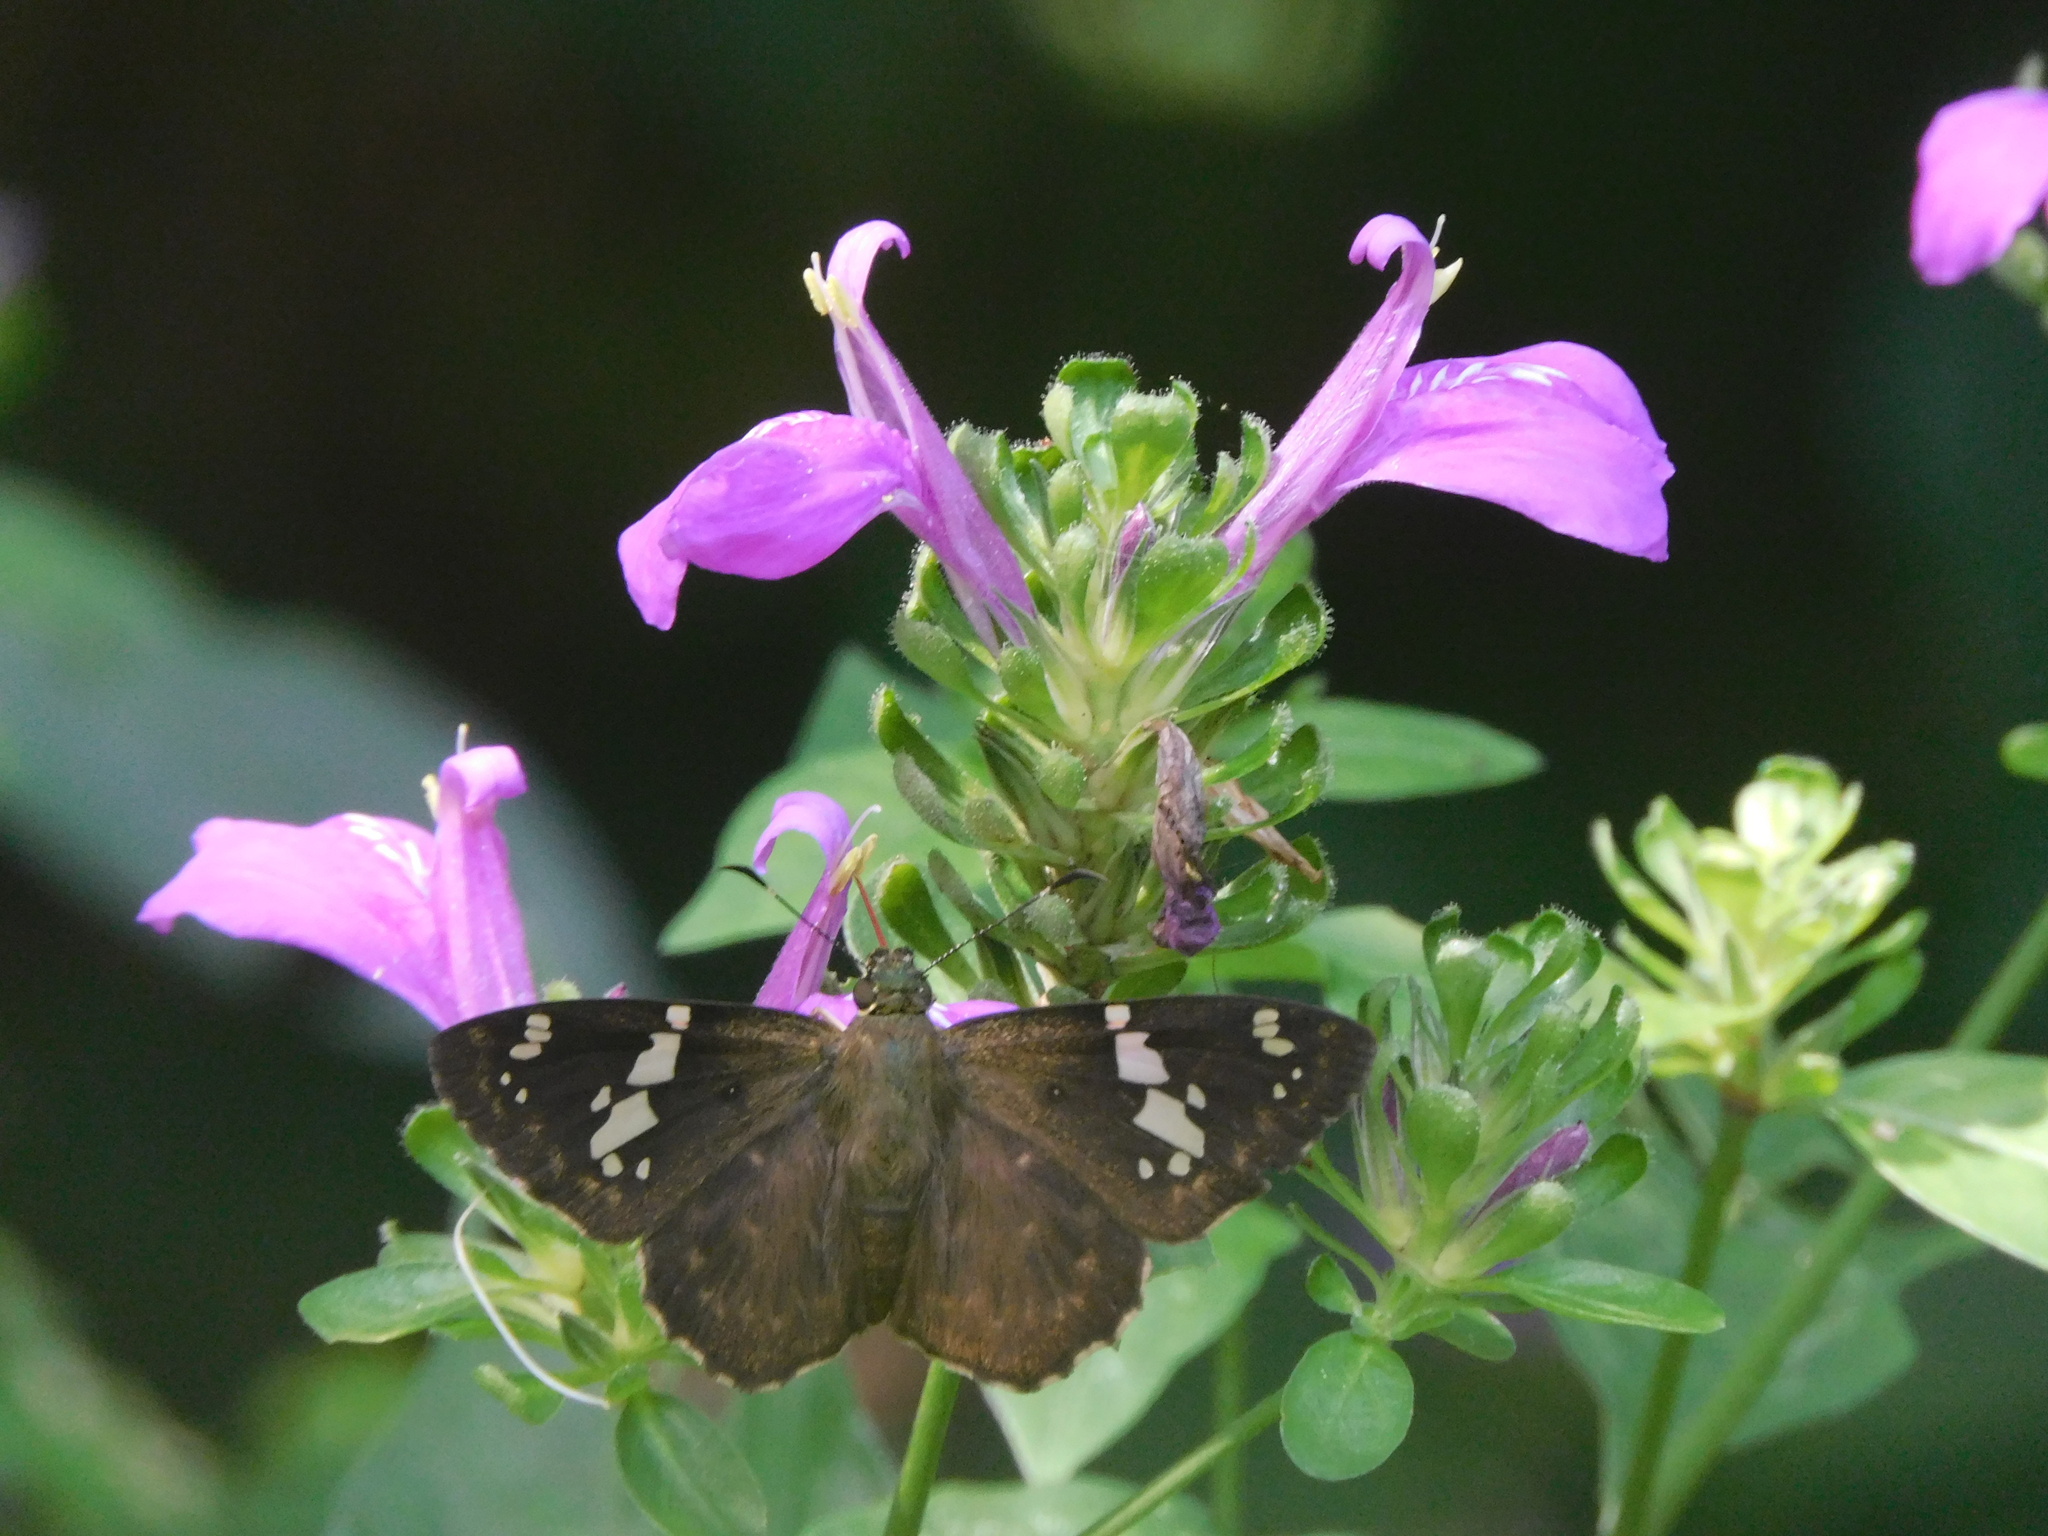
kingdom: Plantae
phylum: Tracheophyta
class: Magnoliopsida
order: Lamiales
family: Acanthaceae
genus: Dicliptera
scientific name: Dicliptera brachiata
